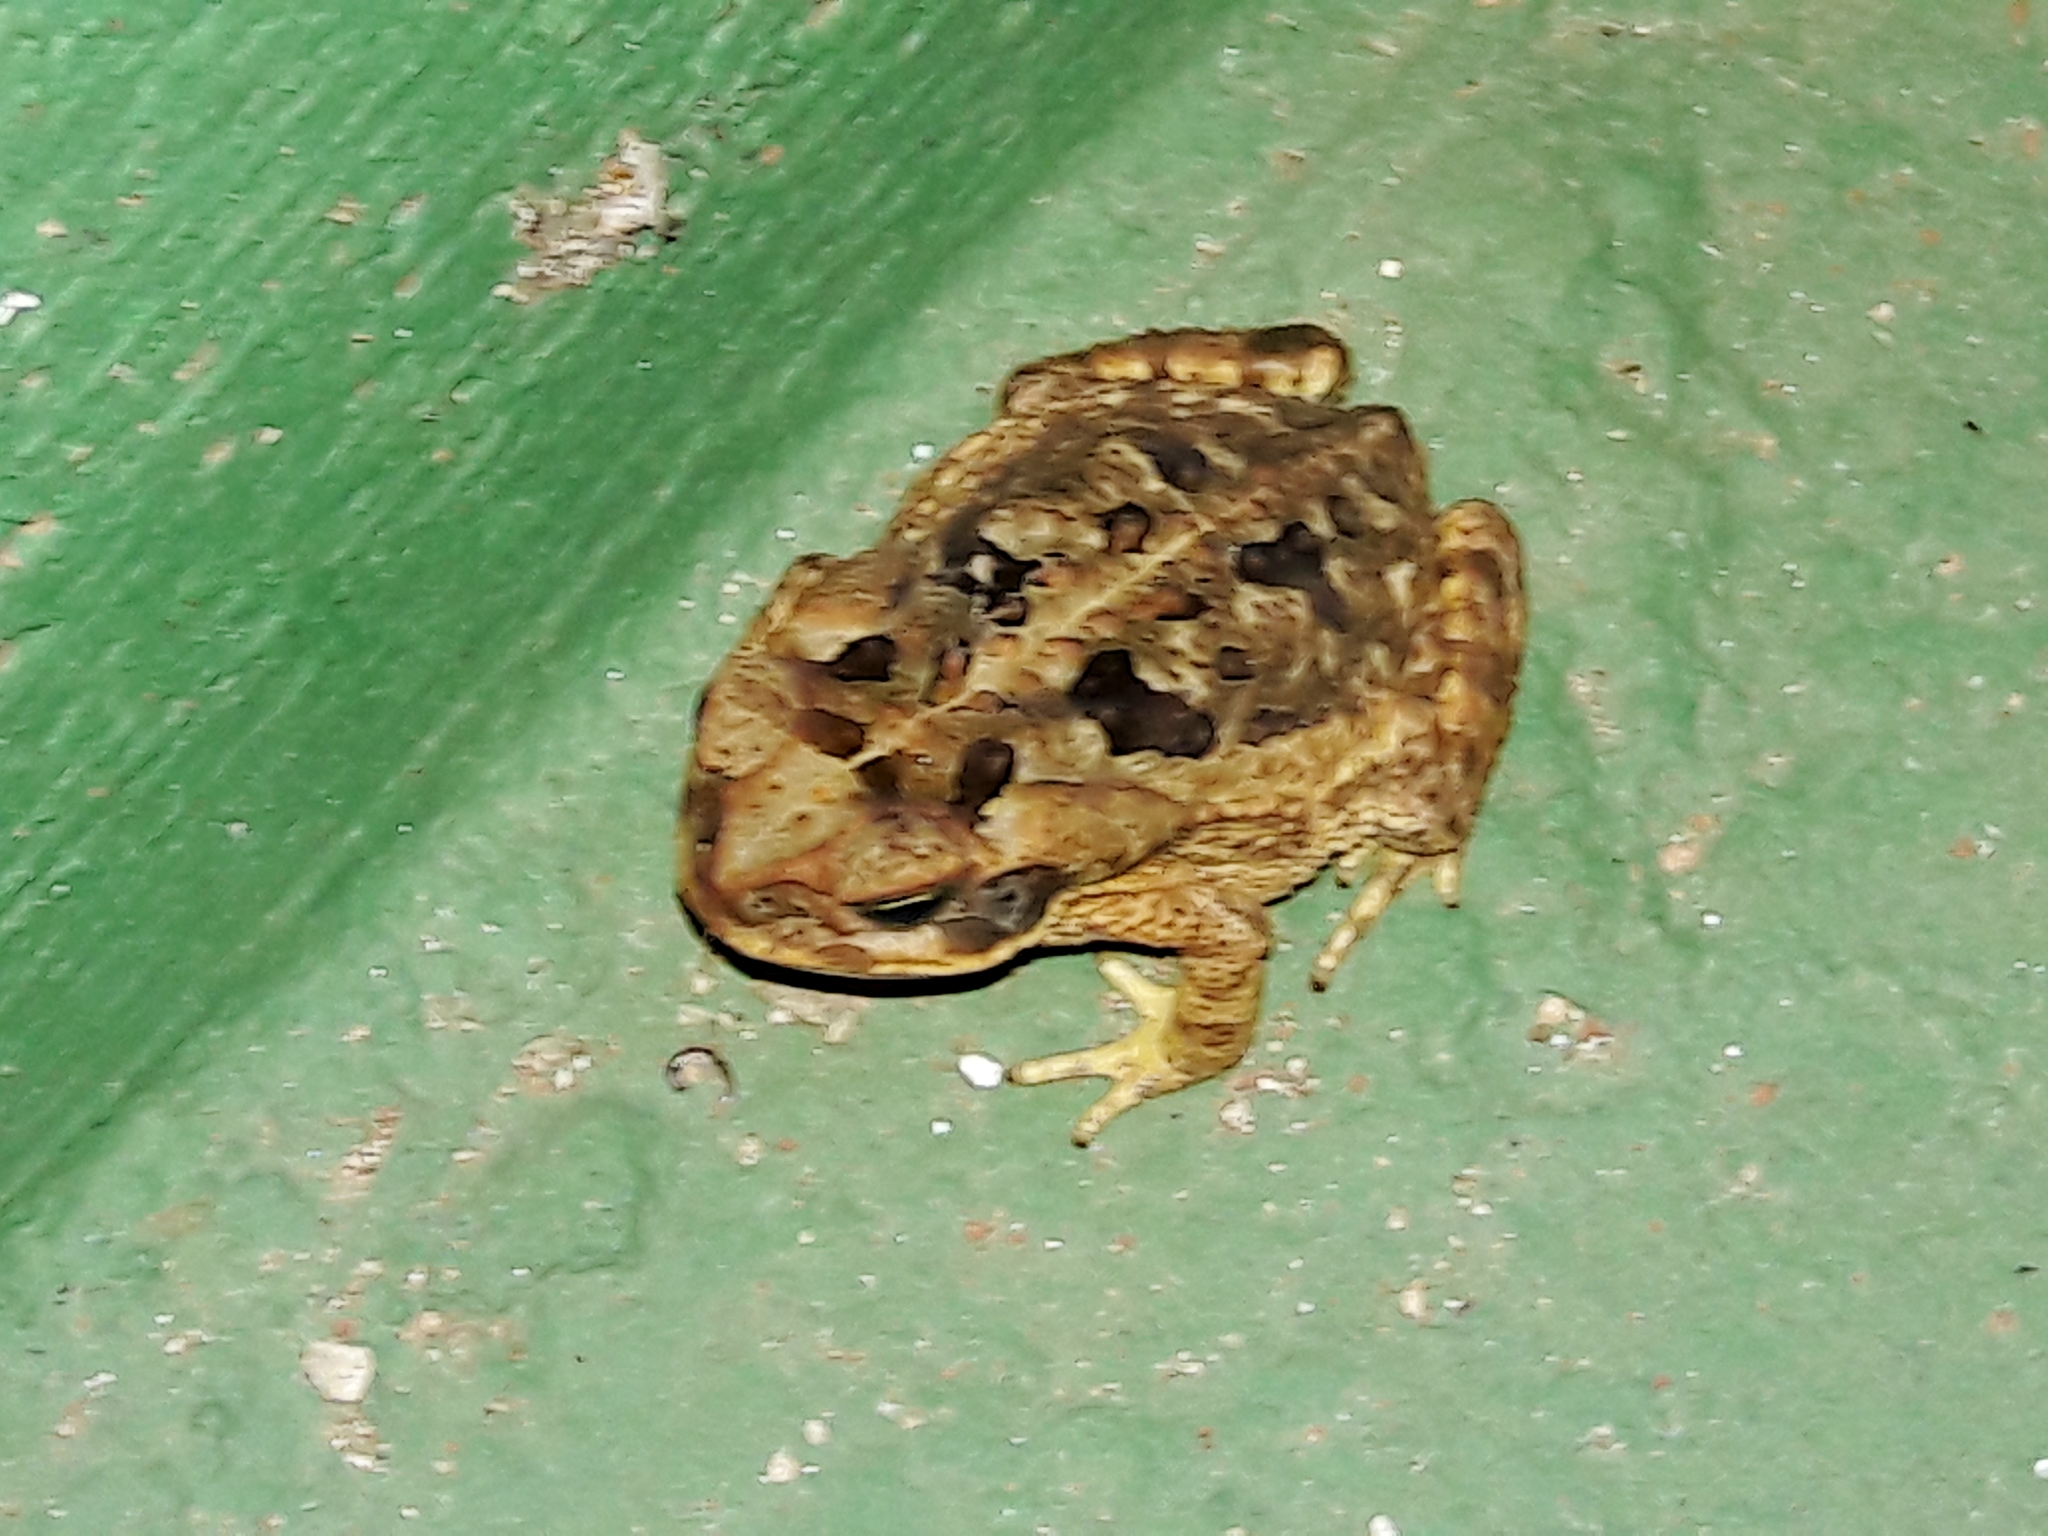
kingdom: Animalia
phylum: Chordata
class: Amphibia
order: Anura
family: Bufonidae
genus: Rhinella
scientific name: Rhinella diptycha
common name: Cope's toad
